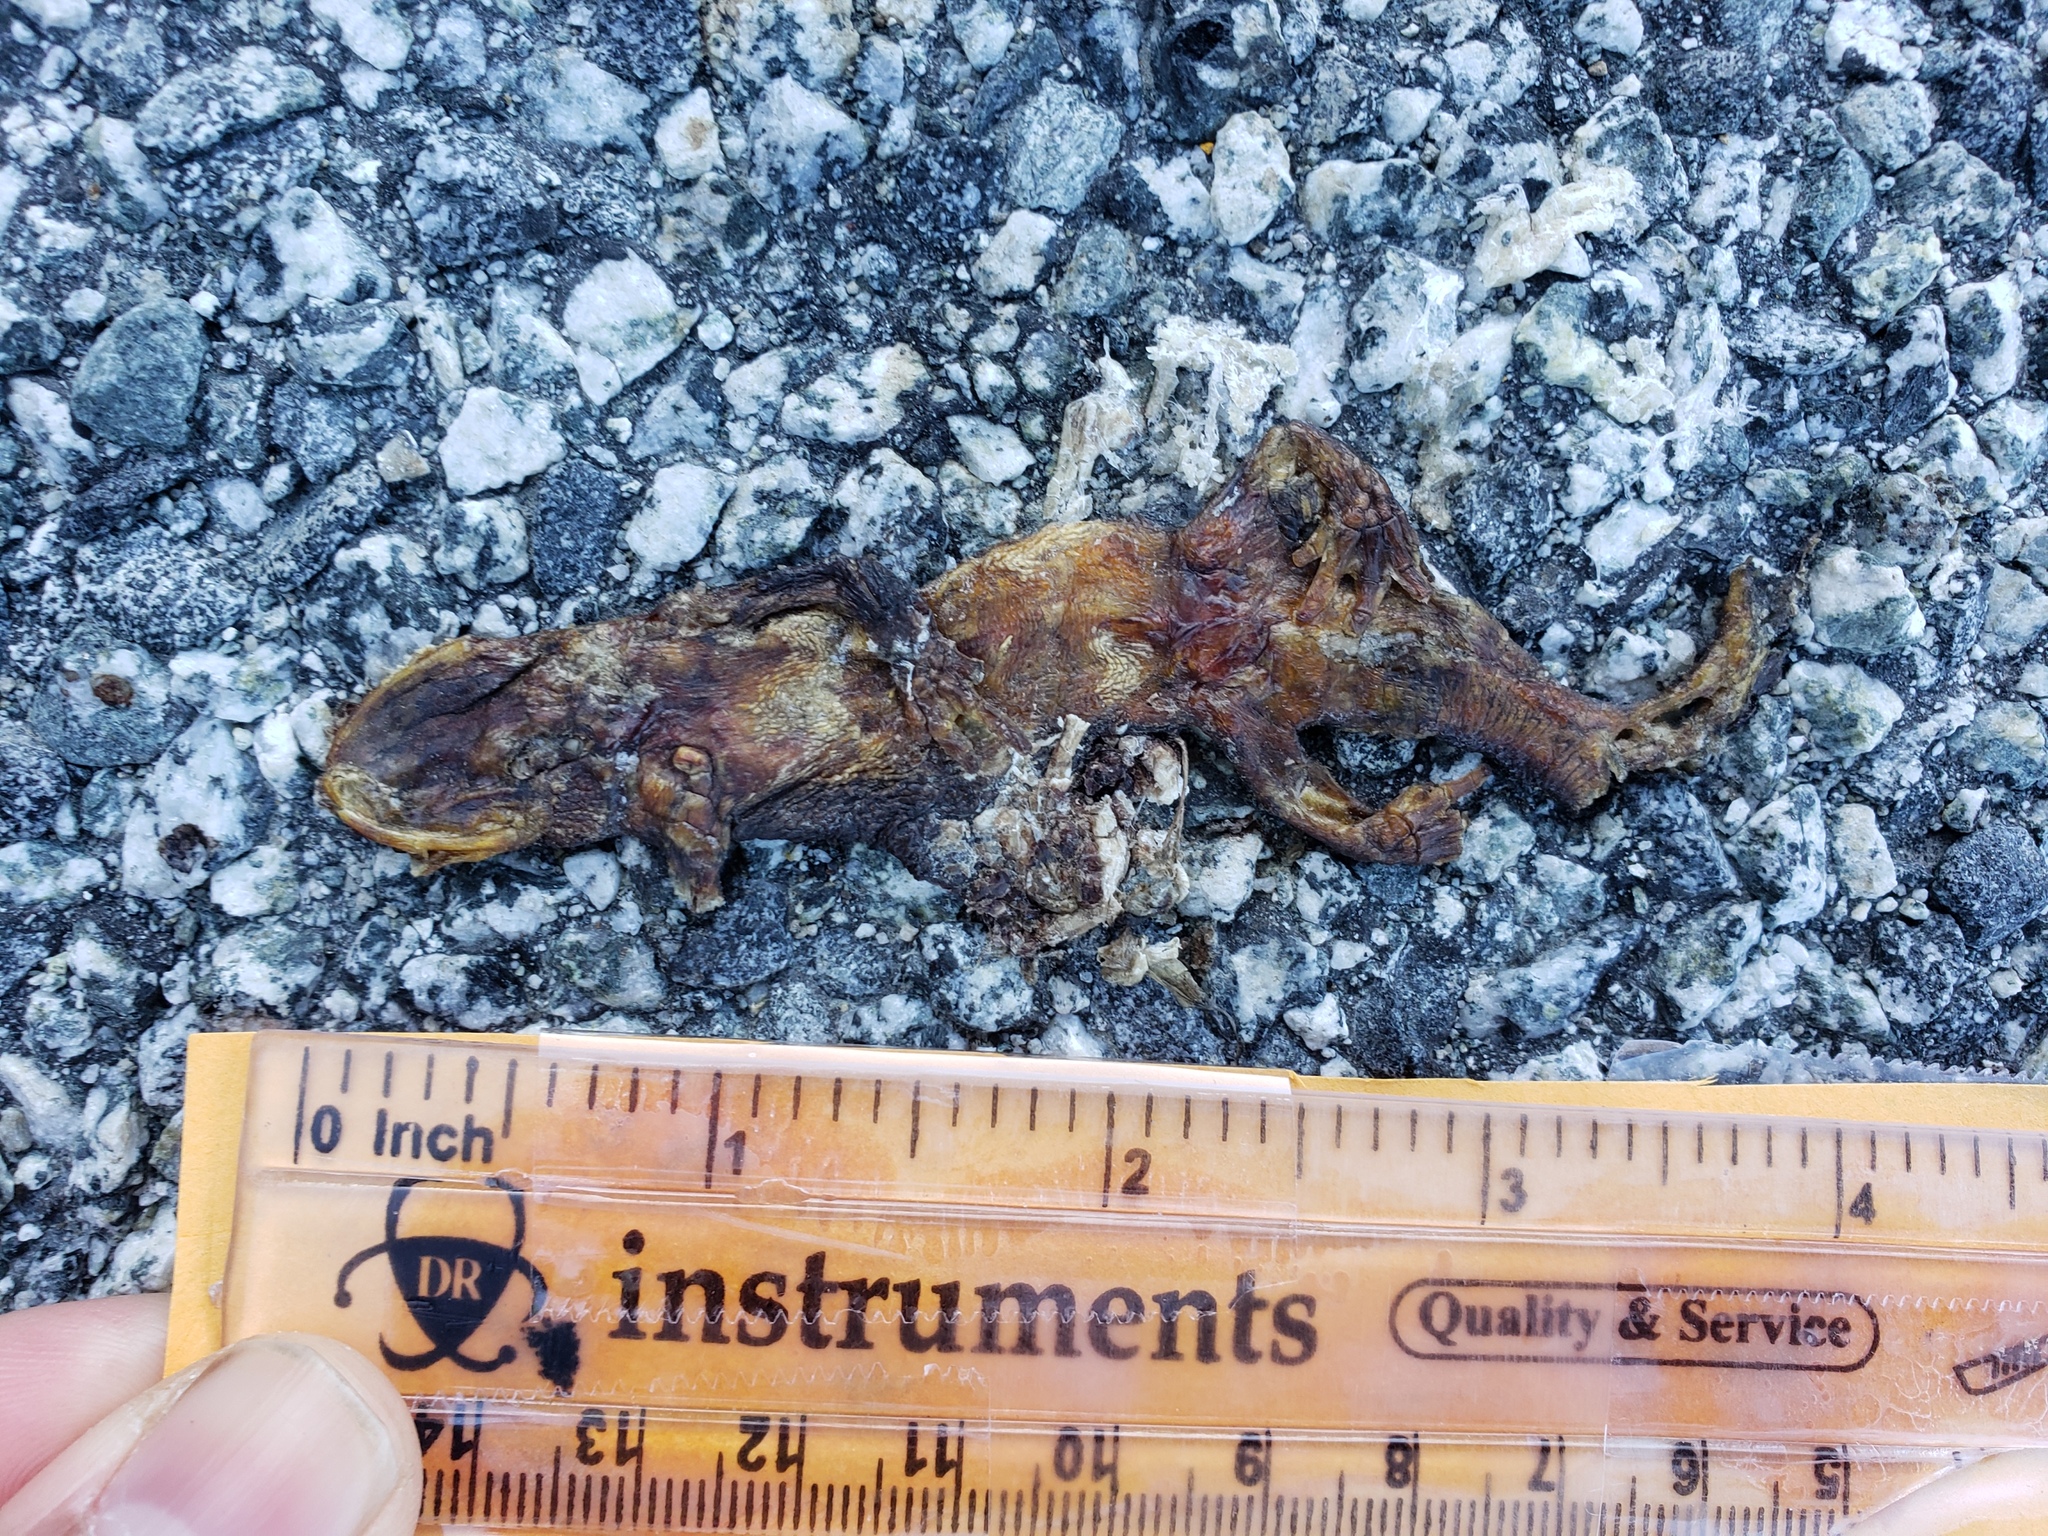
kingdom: Animalia
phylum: Chordata
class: Amphibia
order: Caudata
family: Salamandridae
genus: Taricha
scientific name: Taricha
